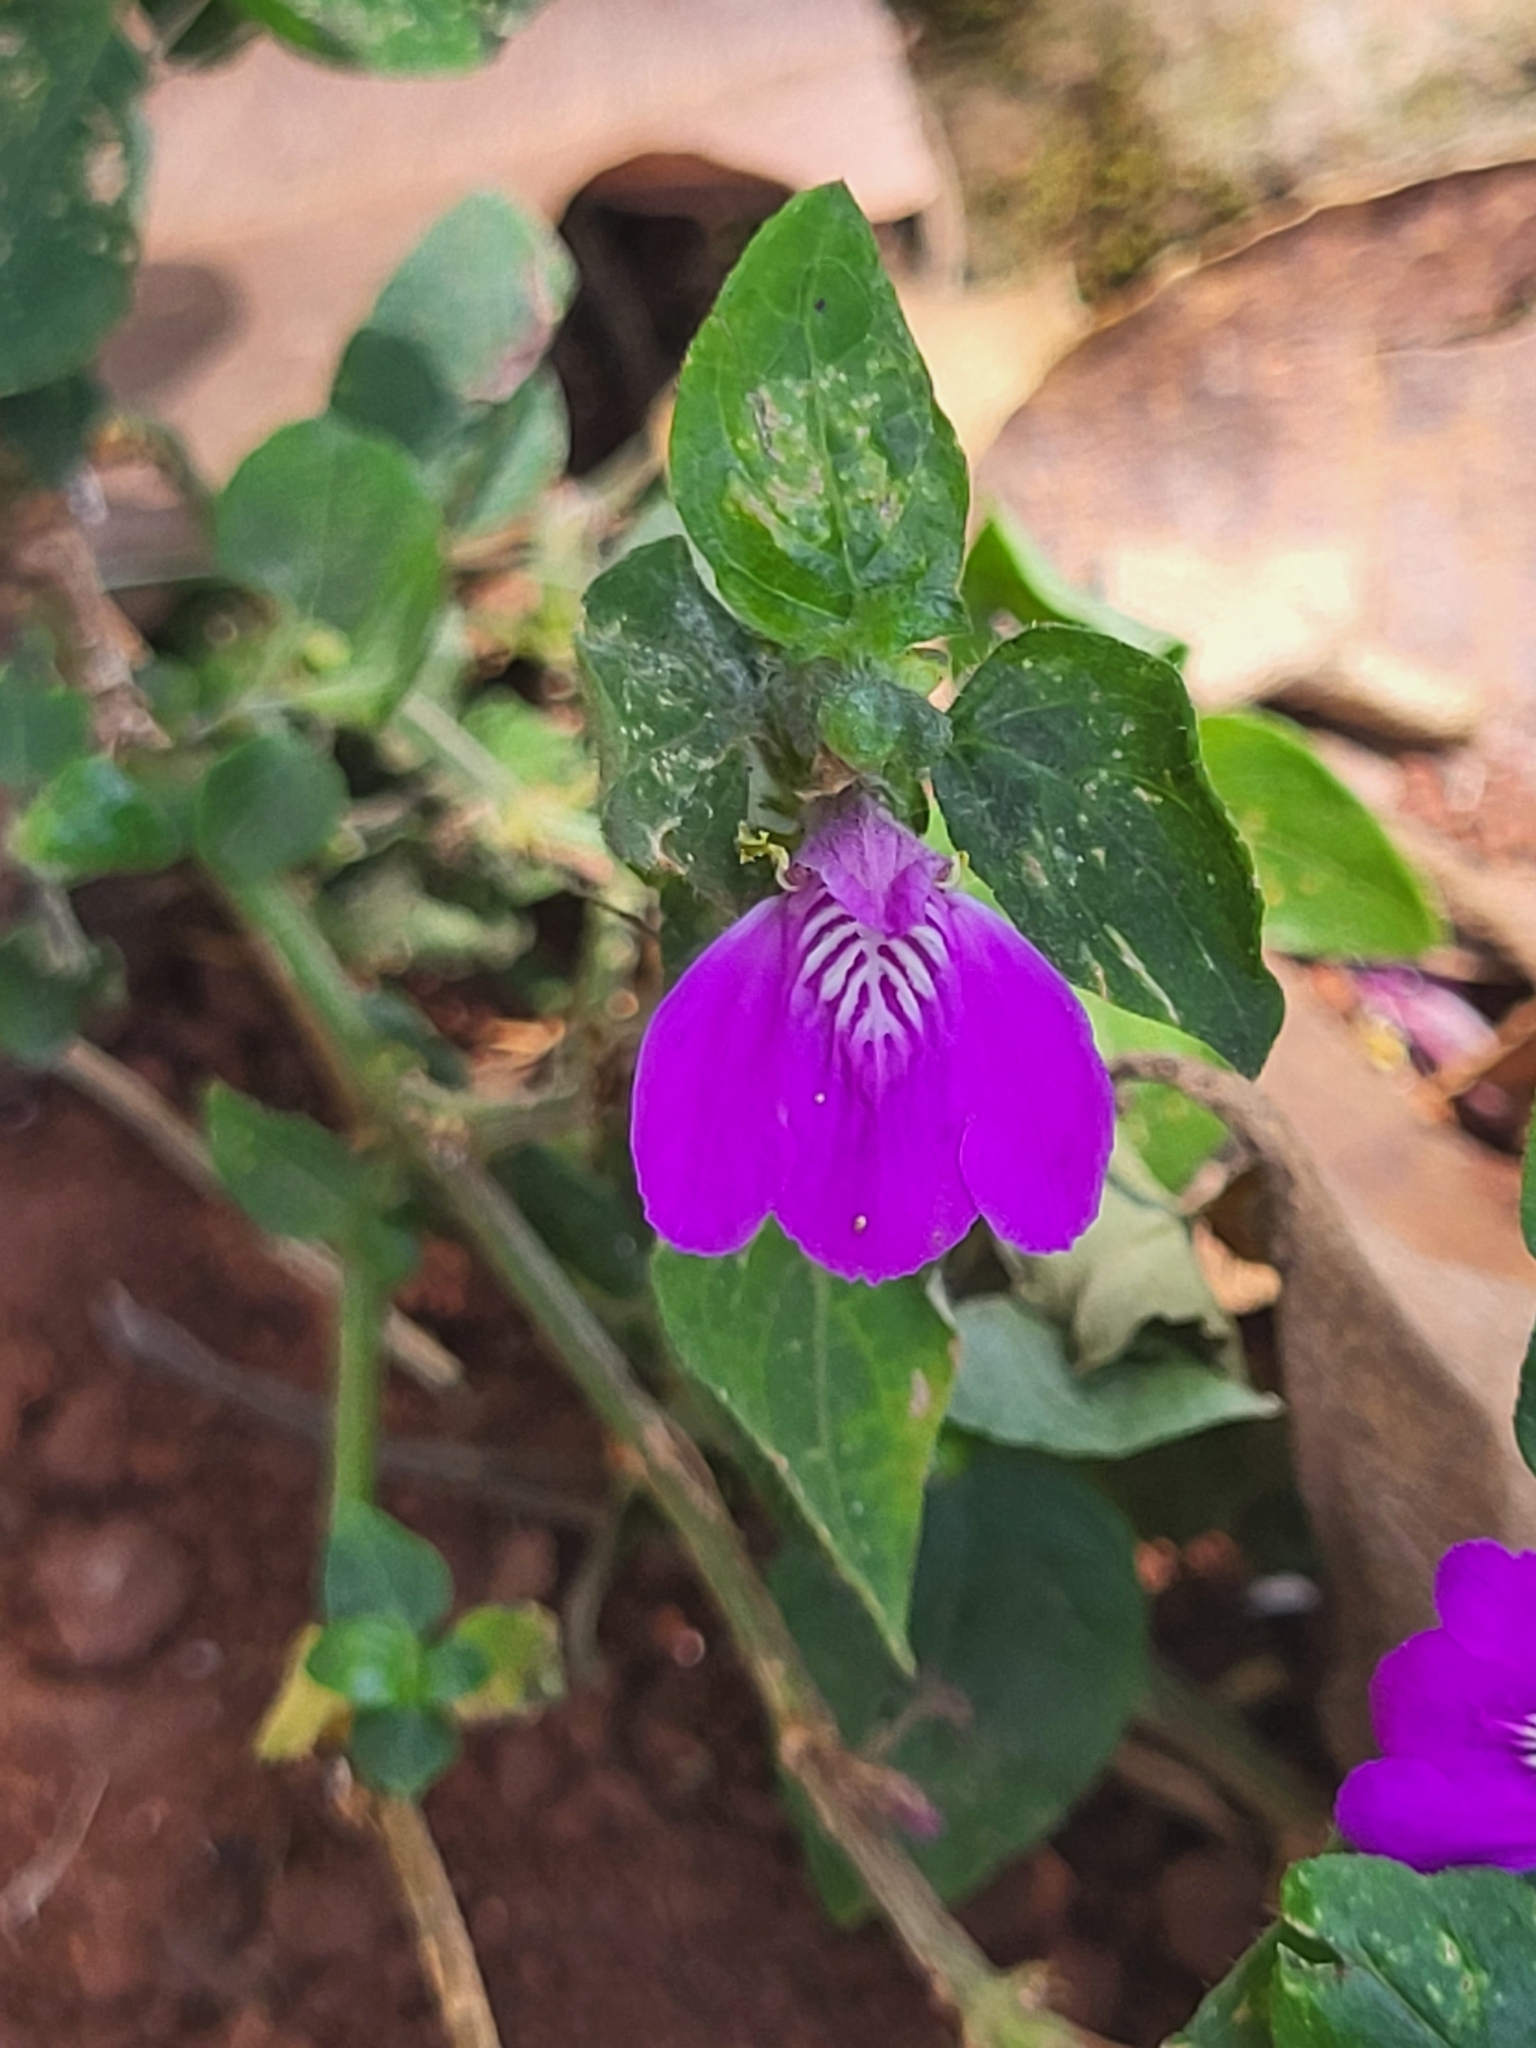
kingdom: Plantae
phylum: Tracheophyta
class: Magnoliopsida
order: Lamiales
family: Acanthaceae
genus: Justicia
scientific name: Justicia diclipteroides
